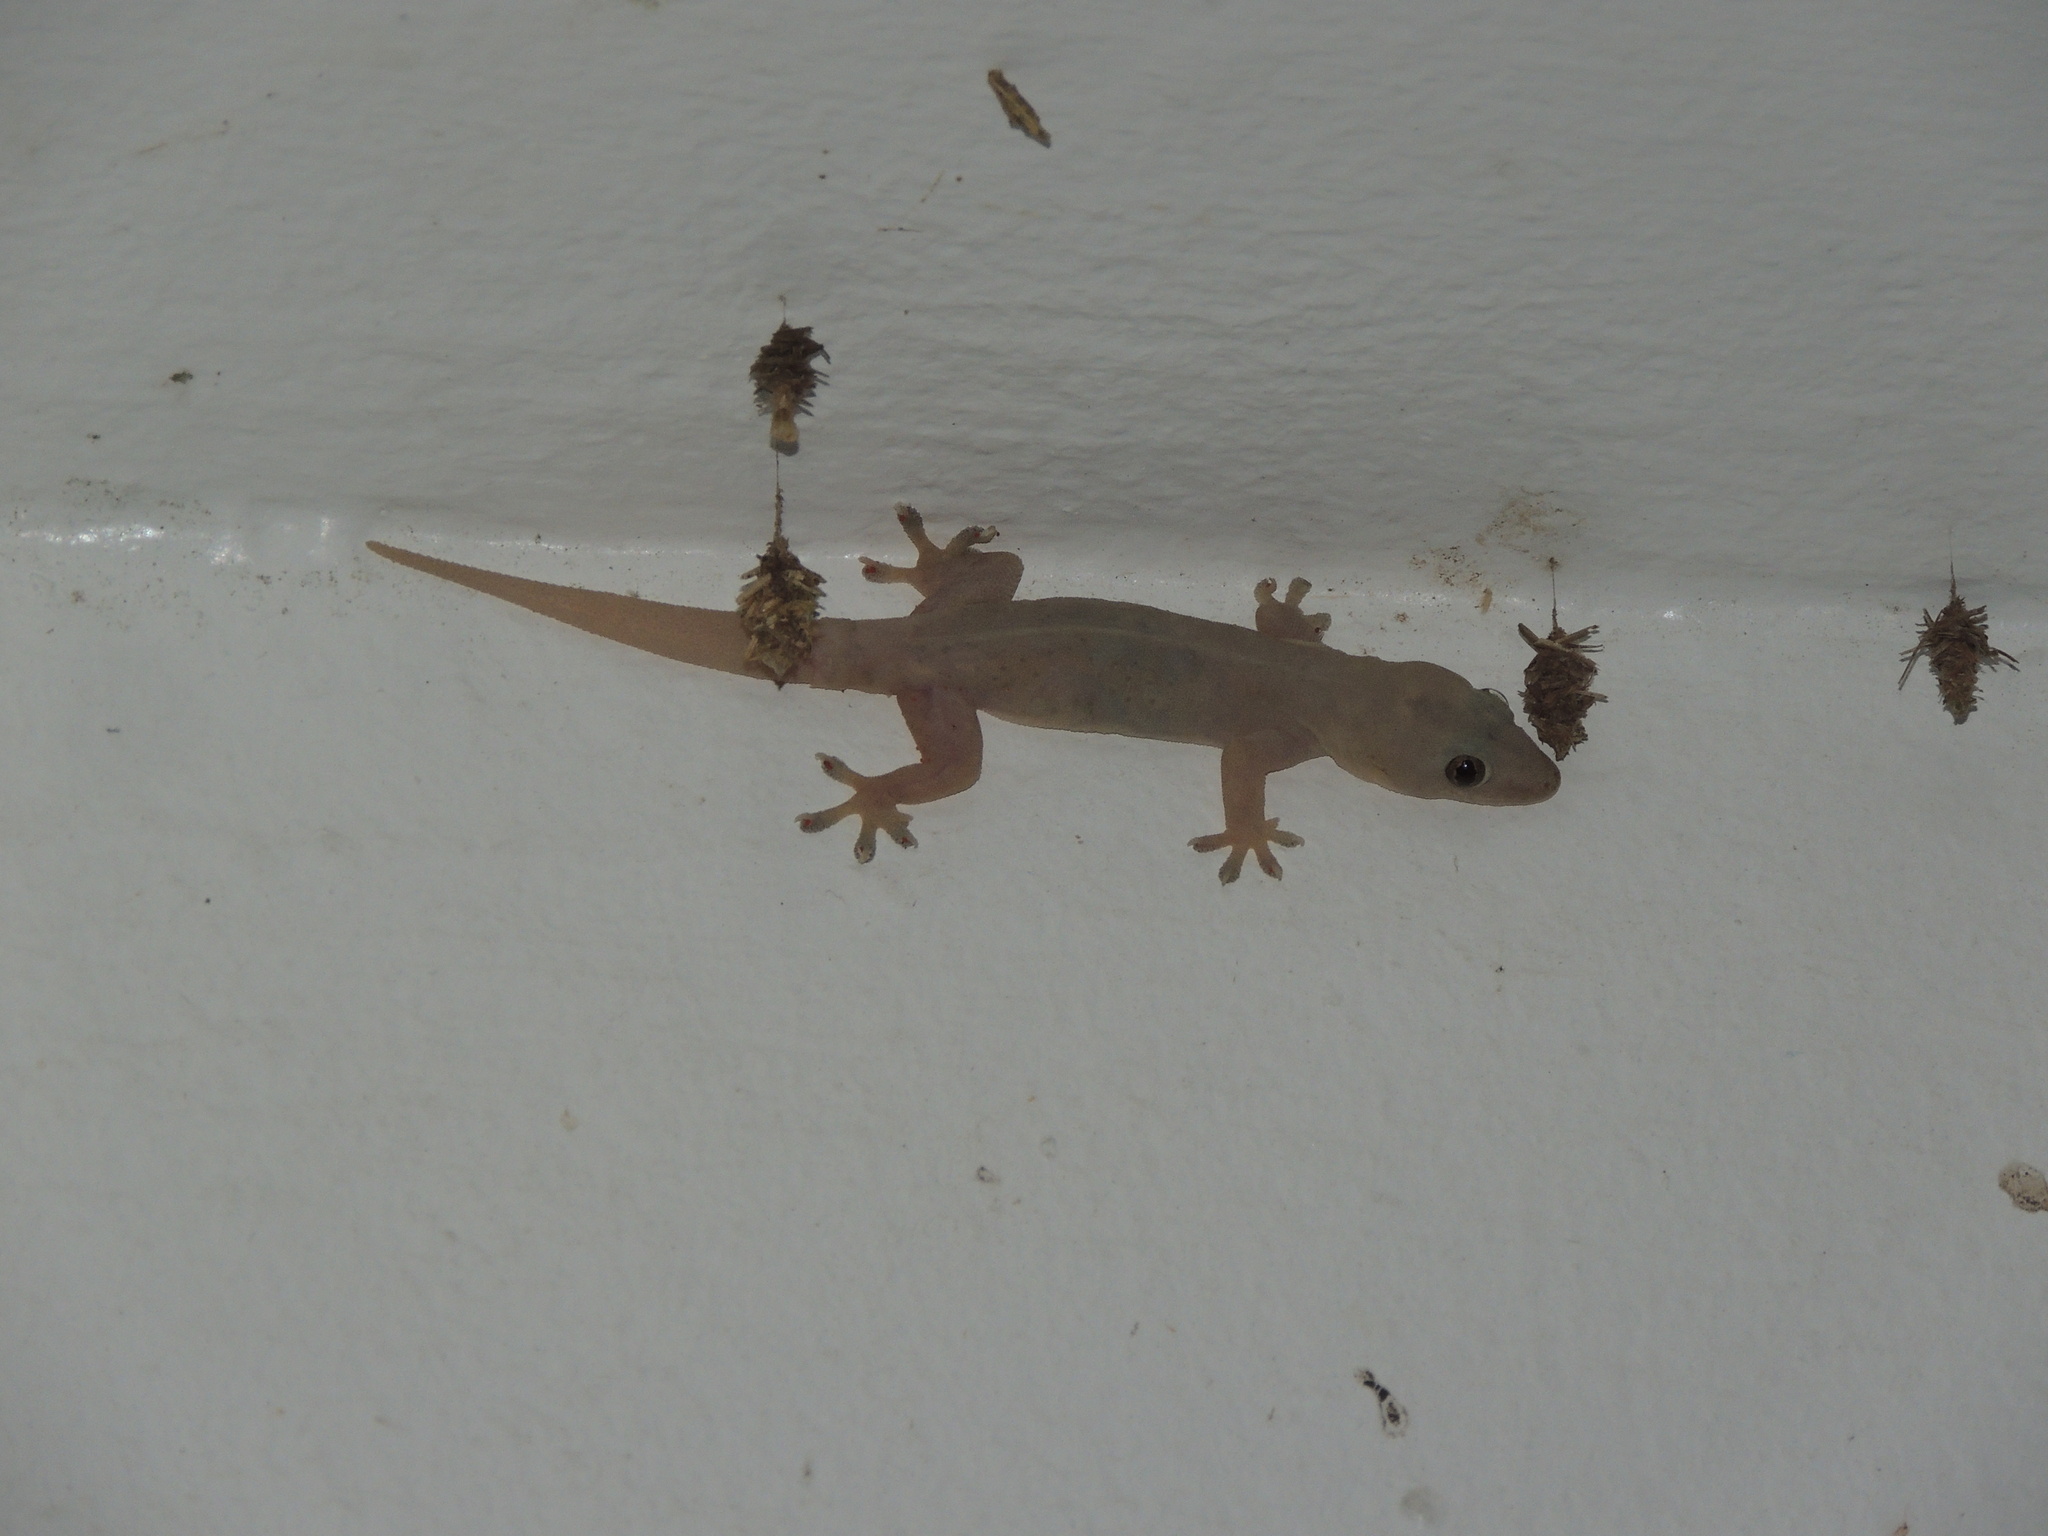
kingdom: Animalia
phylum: Chordata
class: Squamata
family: Gekkonidae
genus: Hemidactylus
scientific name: Hemidactylus frenatus
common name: Common house gecko
